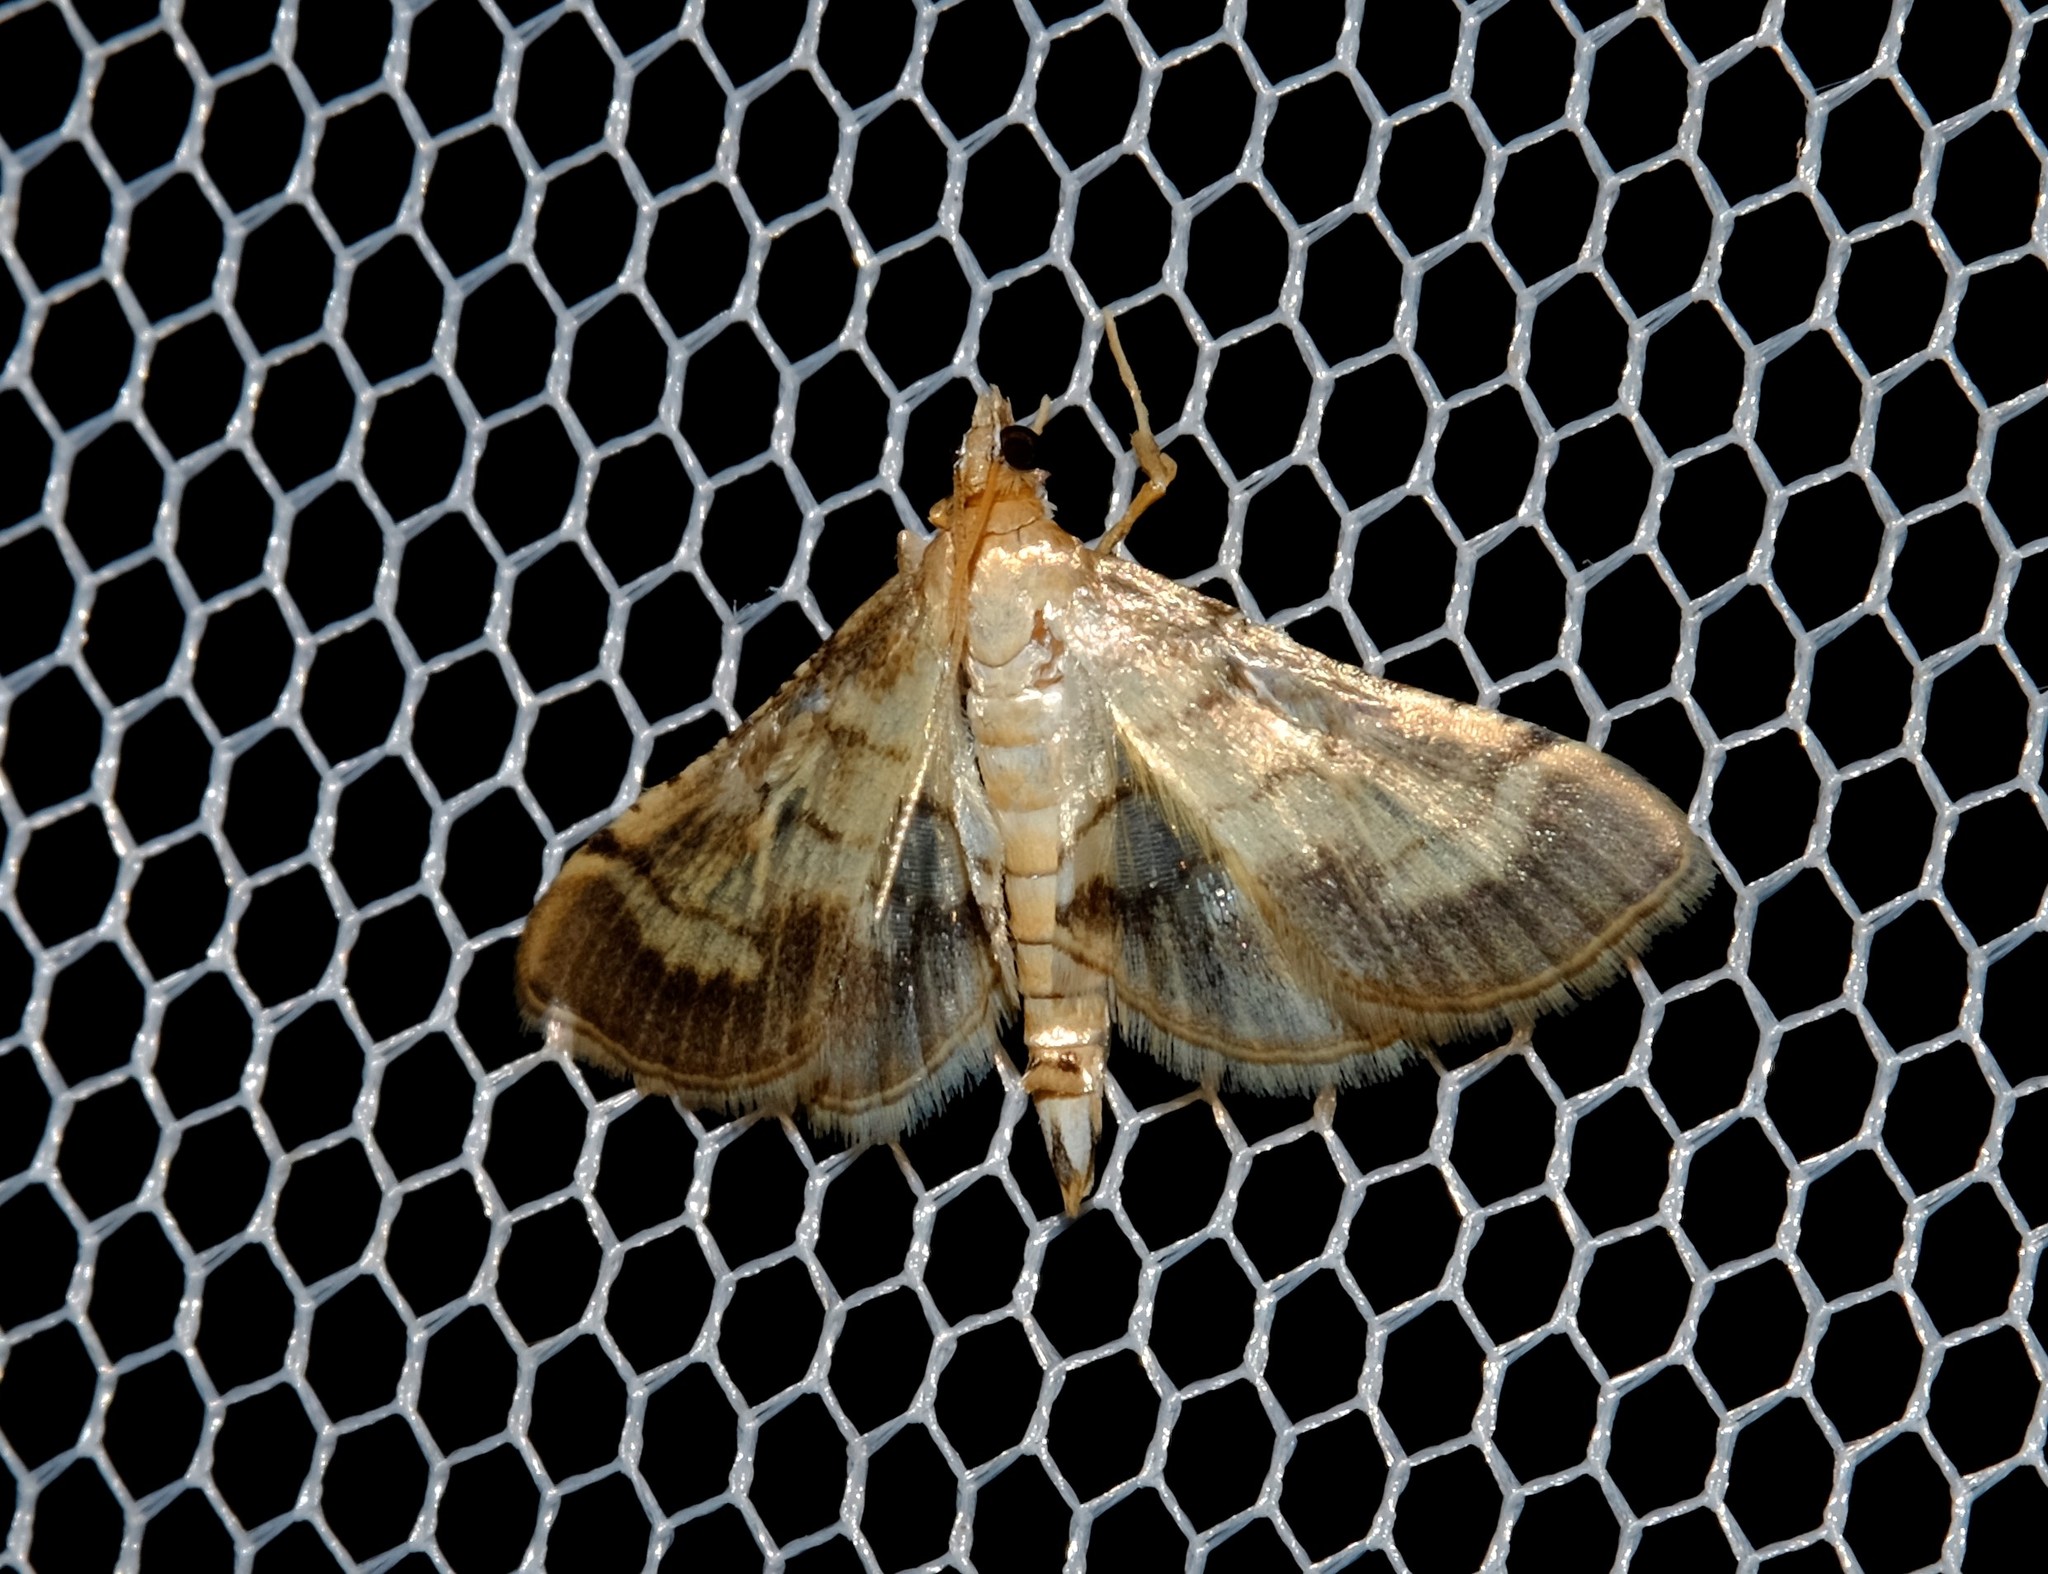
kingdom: Animalia
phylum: Arthropoda
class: Insecta
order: Lepidoptera
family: Crambidae
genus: Cnaphalocrocis
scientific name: Cnaphalocrocis poeyalis
